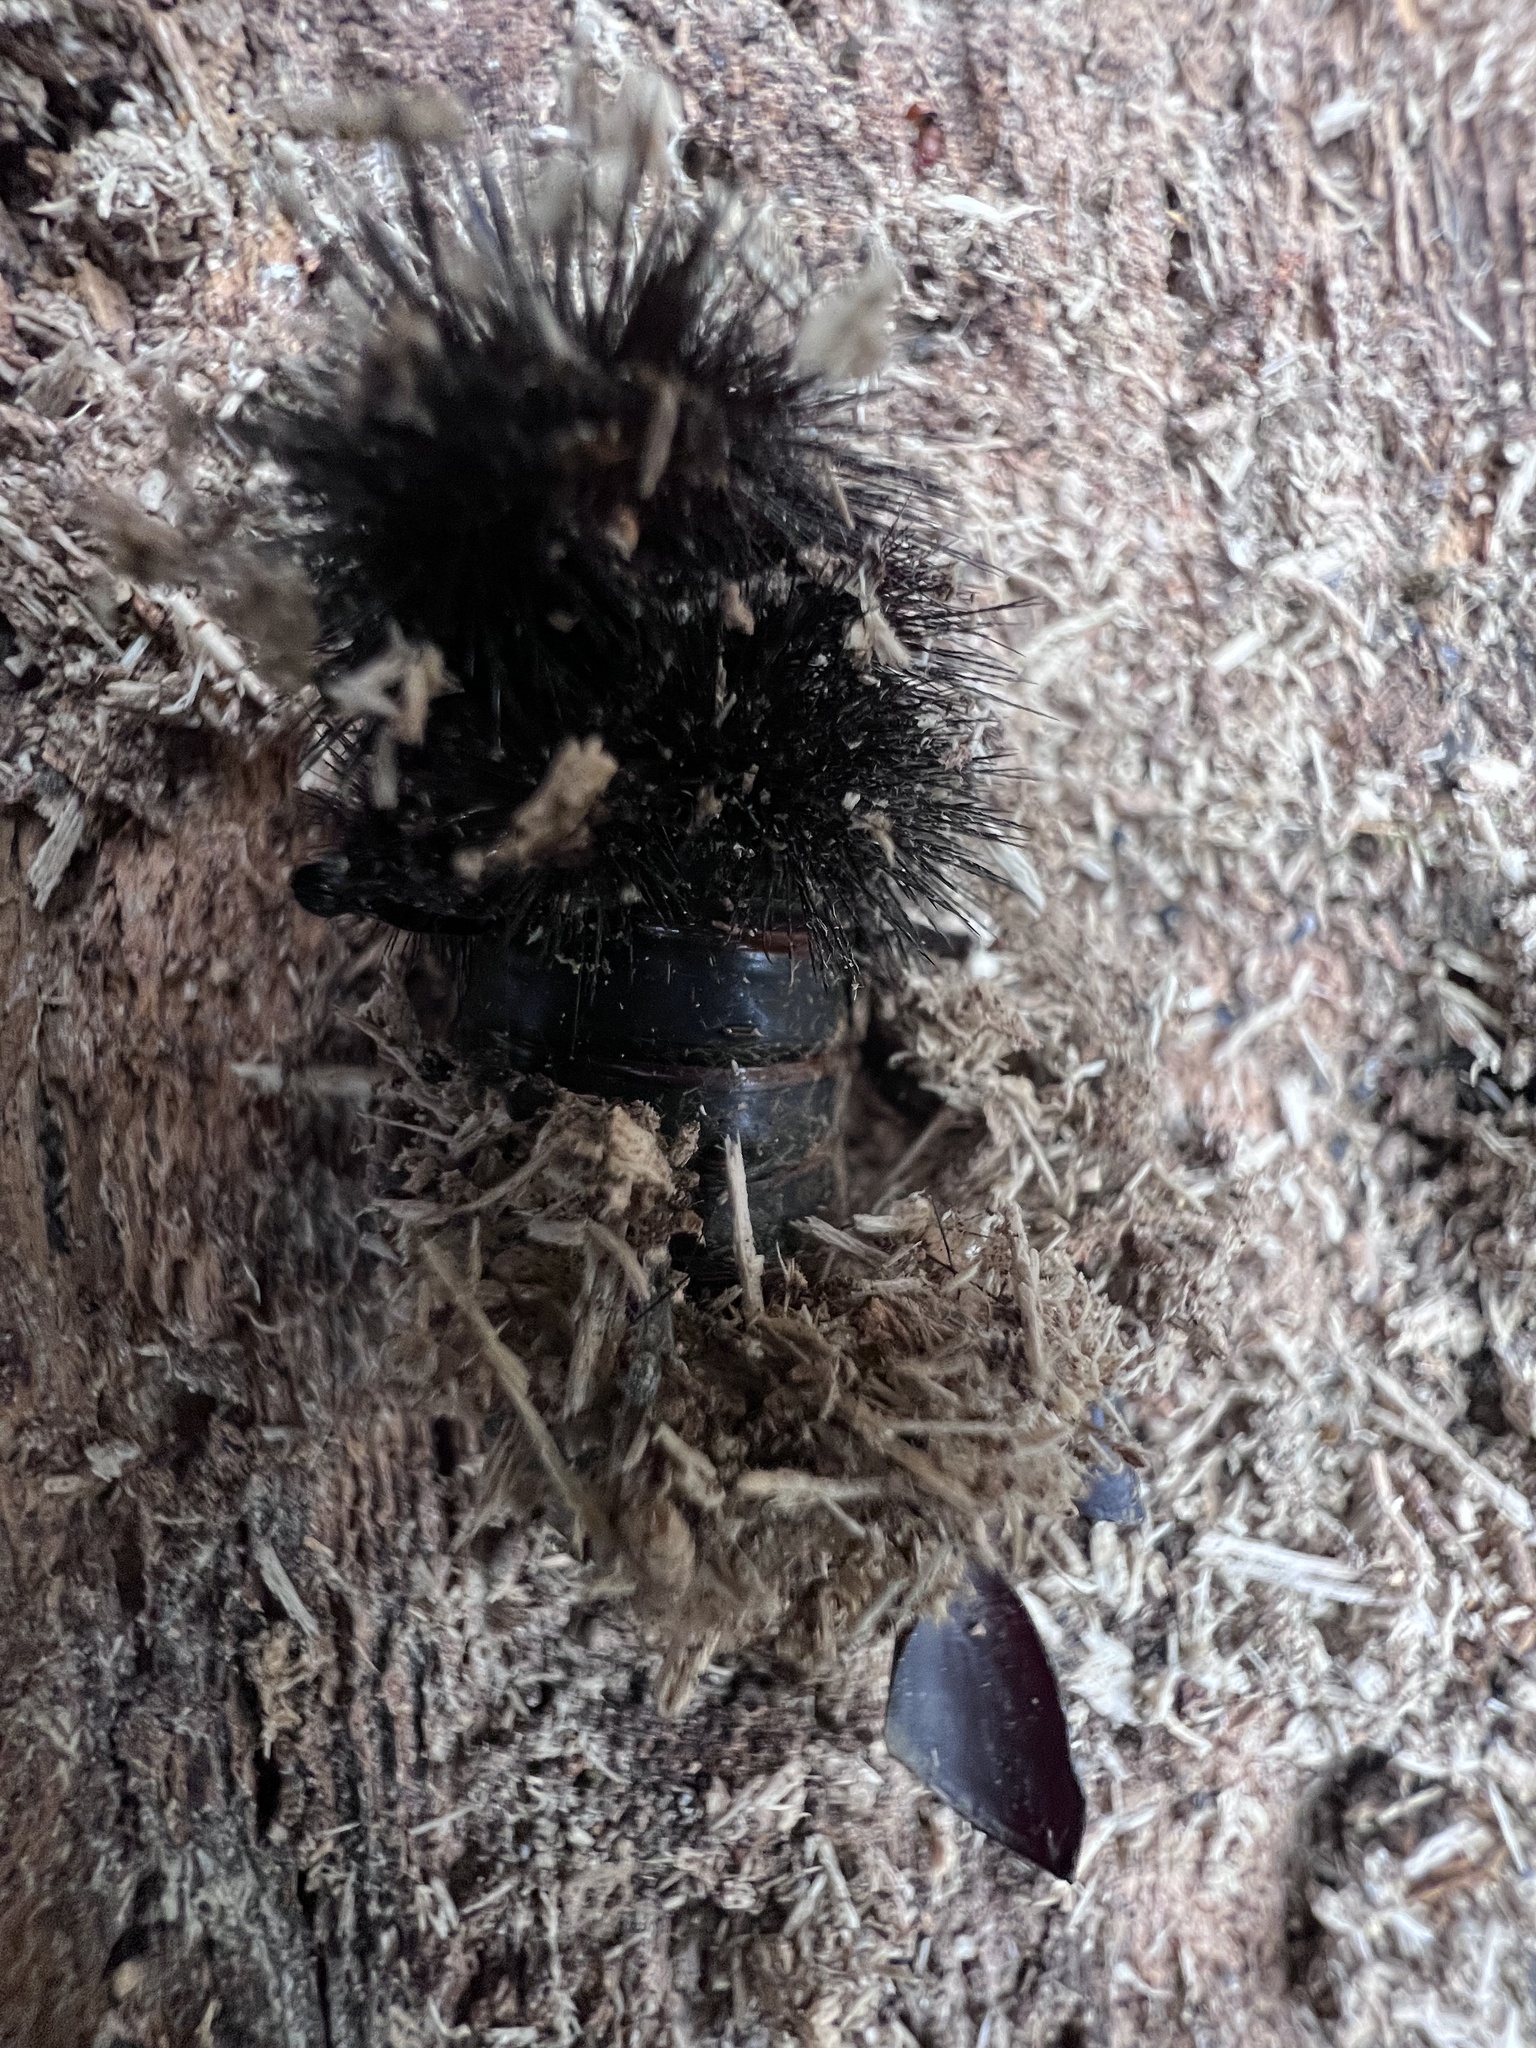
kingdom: Animalia
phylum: Arthropoda
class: Insecta
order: Lepidoptera
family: Erebidae
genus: Hypercompe
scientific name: Hypercompe scribonia
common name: Giant leopard moth
